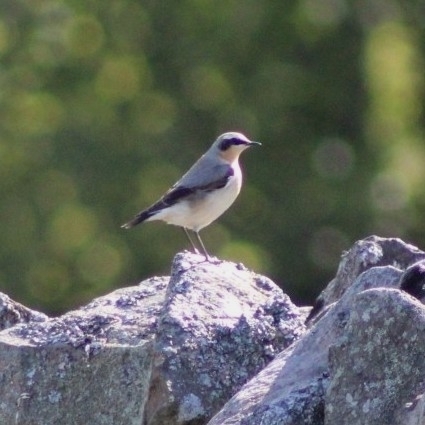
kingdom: Animalia
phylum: Chordata
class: Aves
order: Passeriformes
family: Muscicapidae
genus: Oenanthe
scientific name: Oenanthe oenanthe
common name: Northern wheatear
